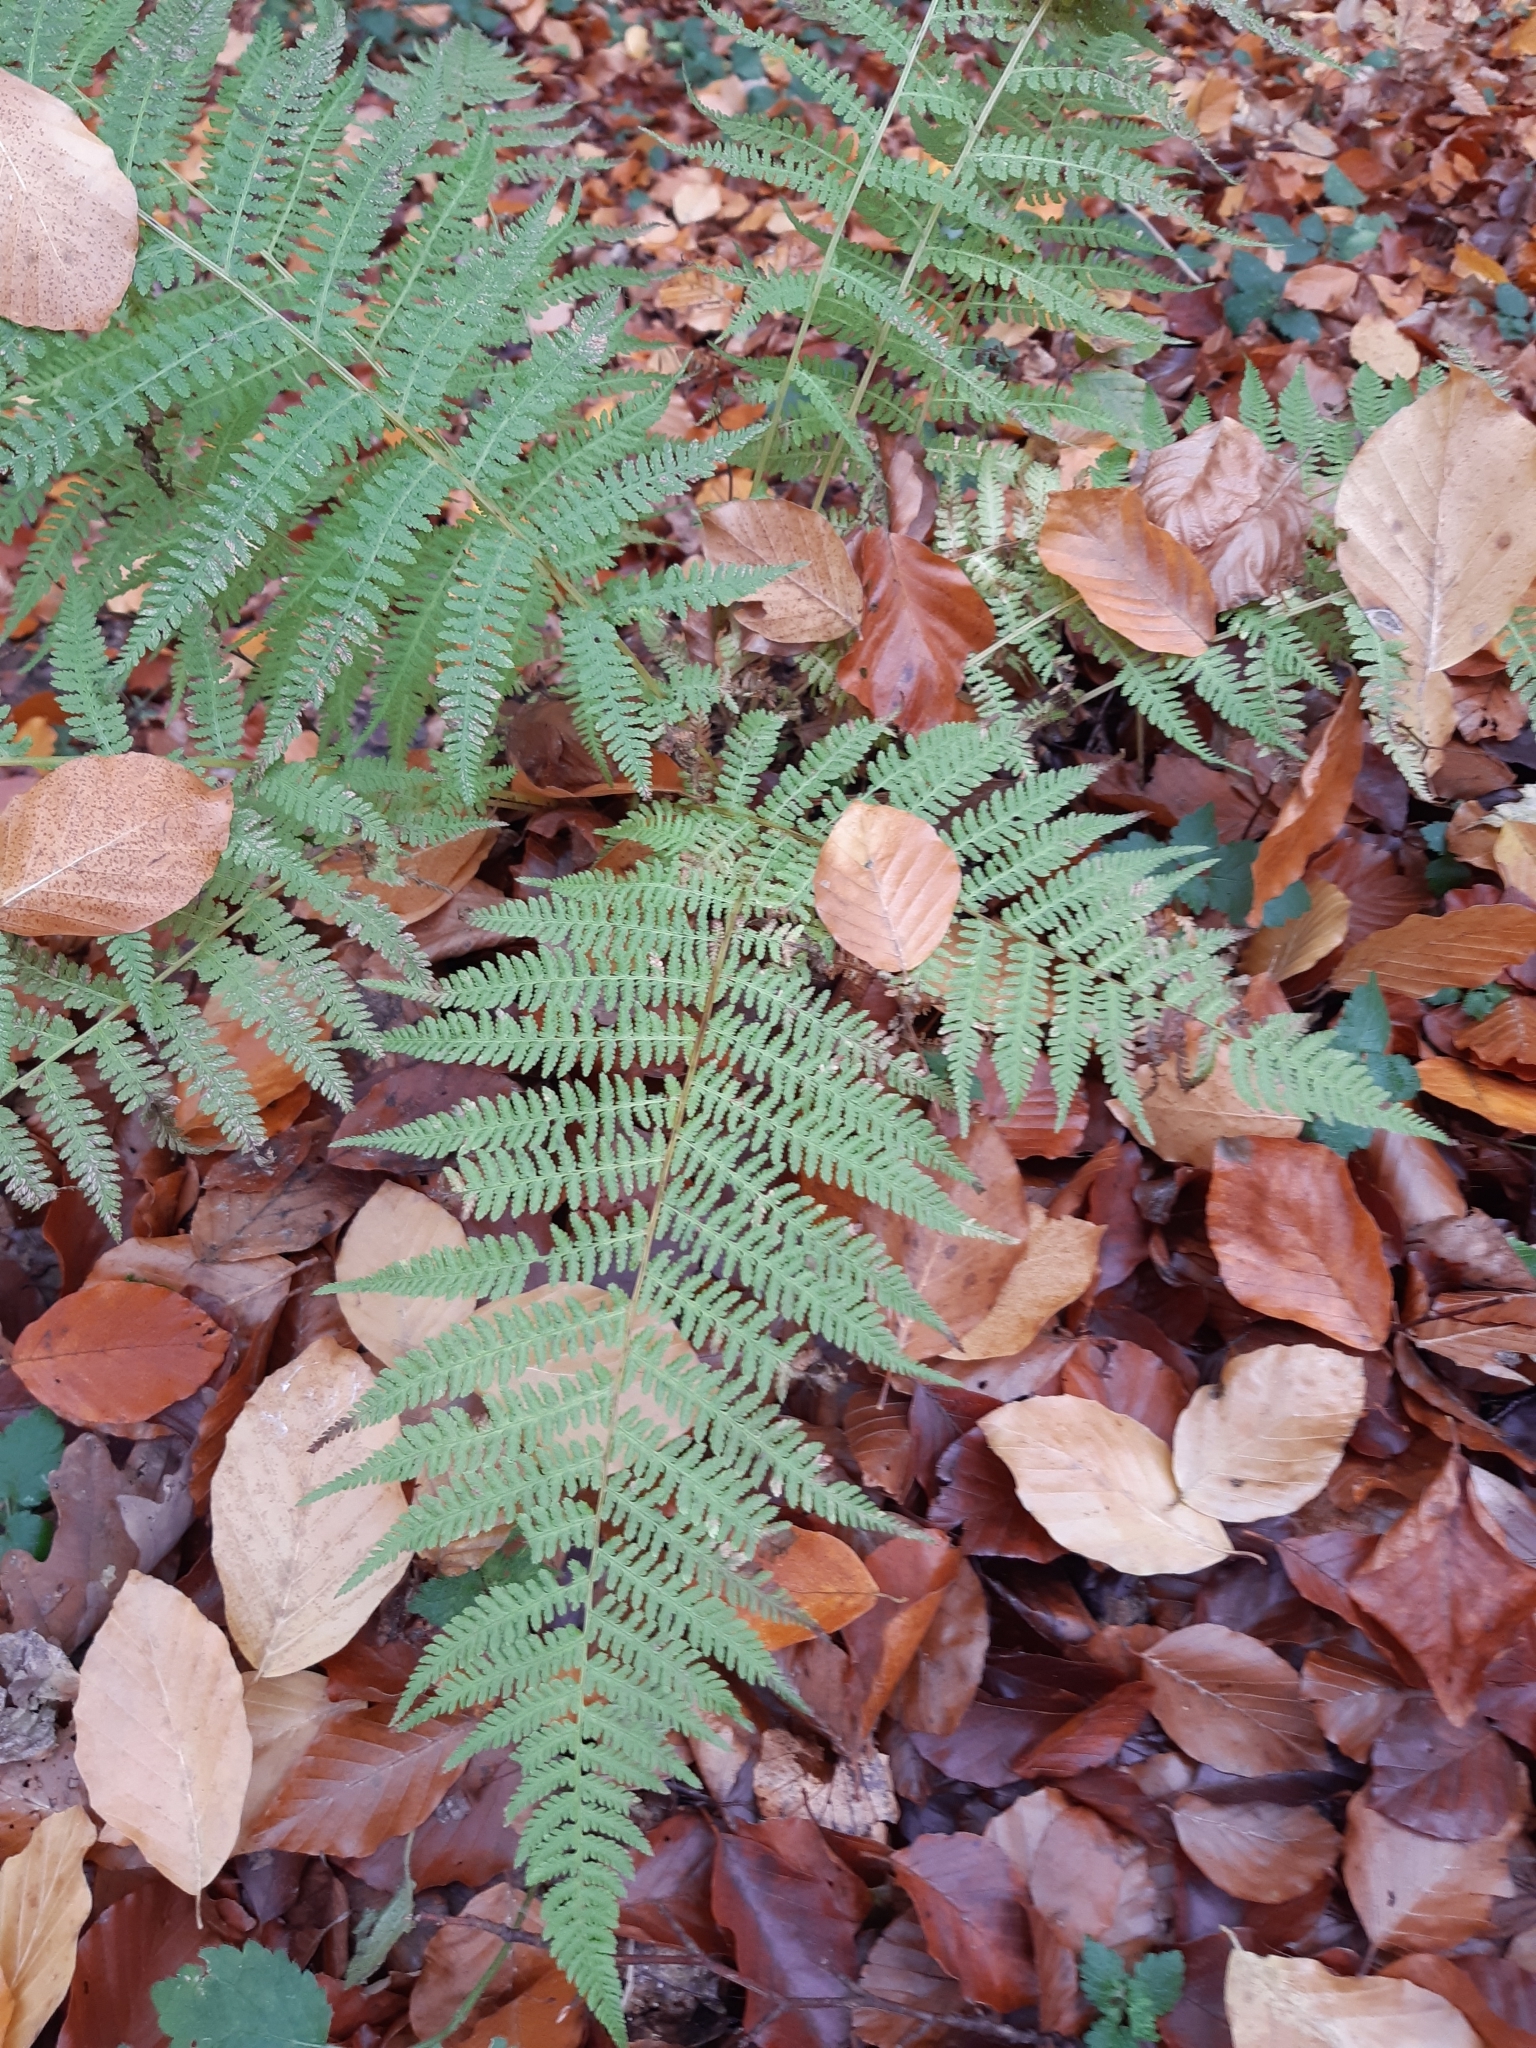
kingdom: Plantae
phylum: Tracheophyta
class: Polypodiopsida
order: Polypodiales
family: Athyriaceae
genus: Athyrium
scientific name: Athyrium filix-femina
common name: Lady fern
